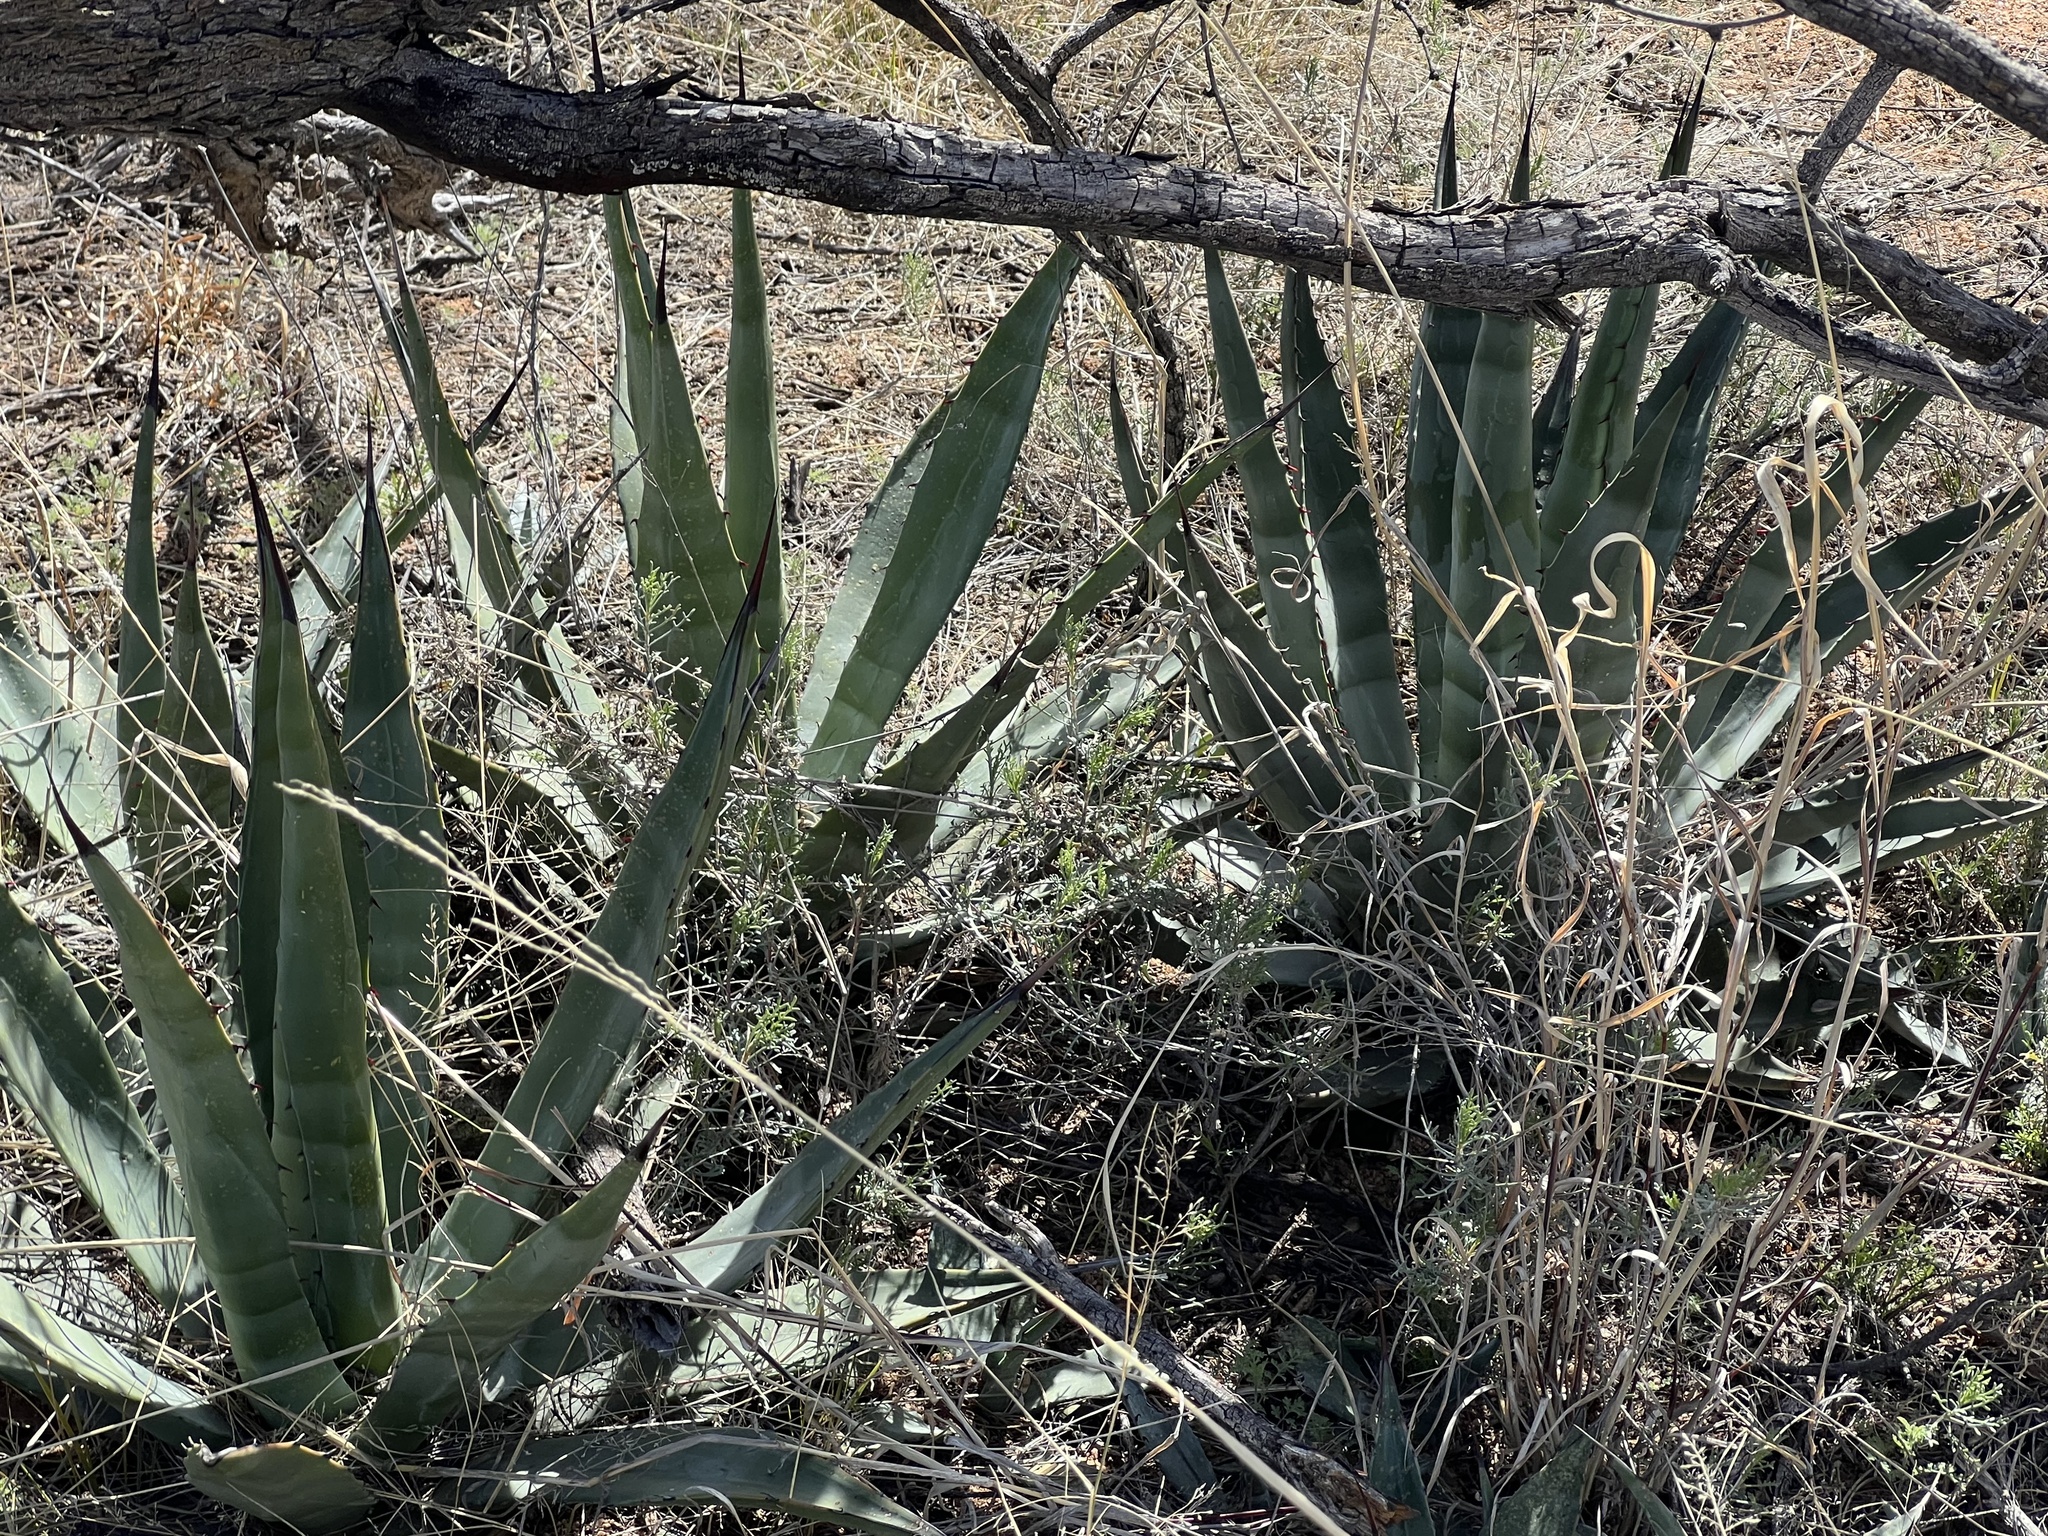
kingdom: Plantae
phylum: Tracheophyta
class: Liliopsida
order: Asparagales
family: Asparagaceae
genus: Agave
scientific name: Agave palmeri
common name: Palmer agave
